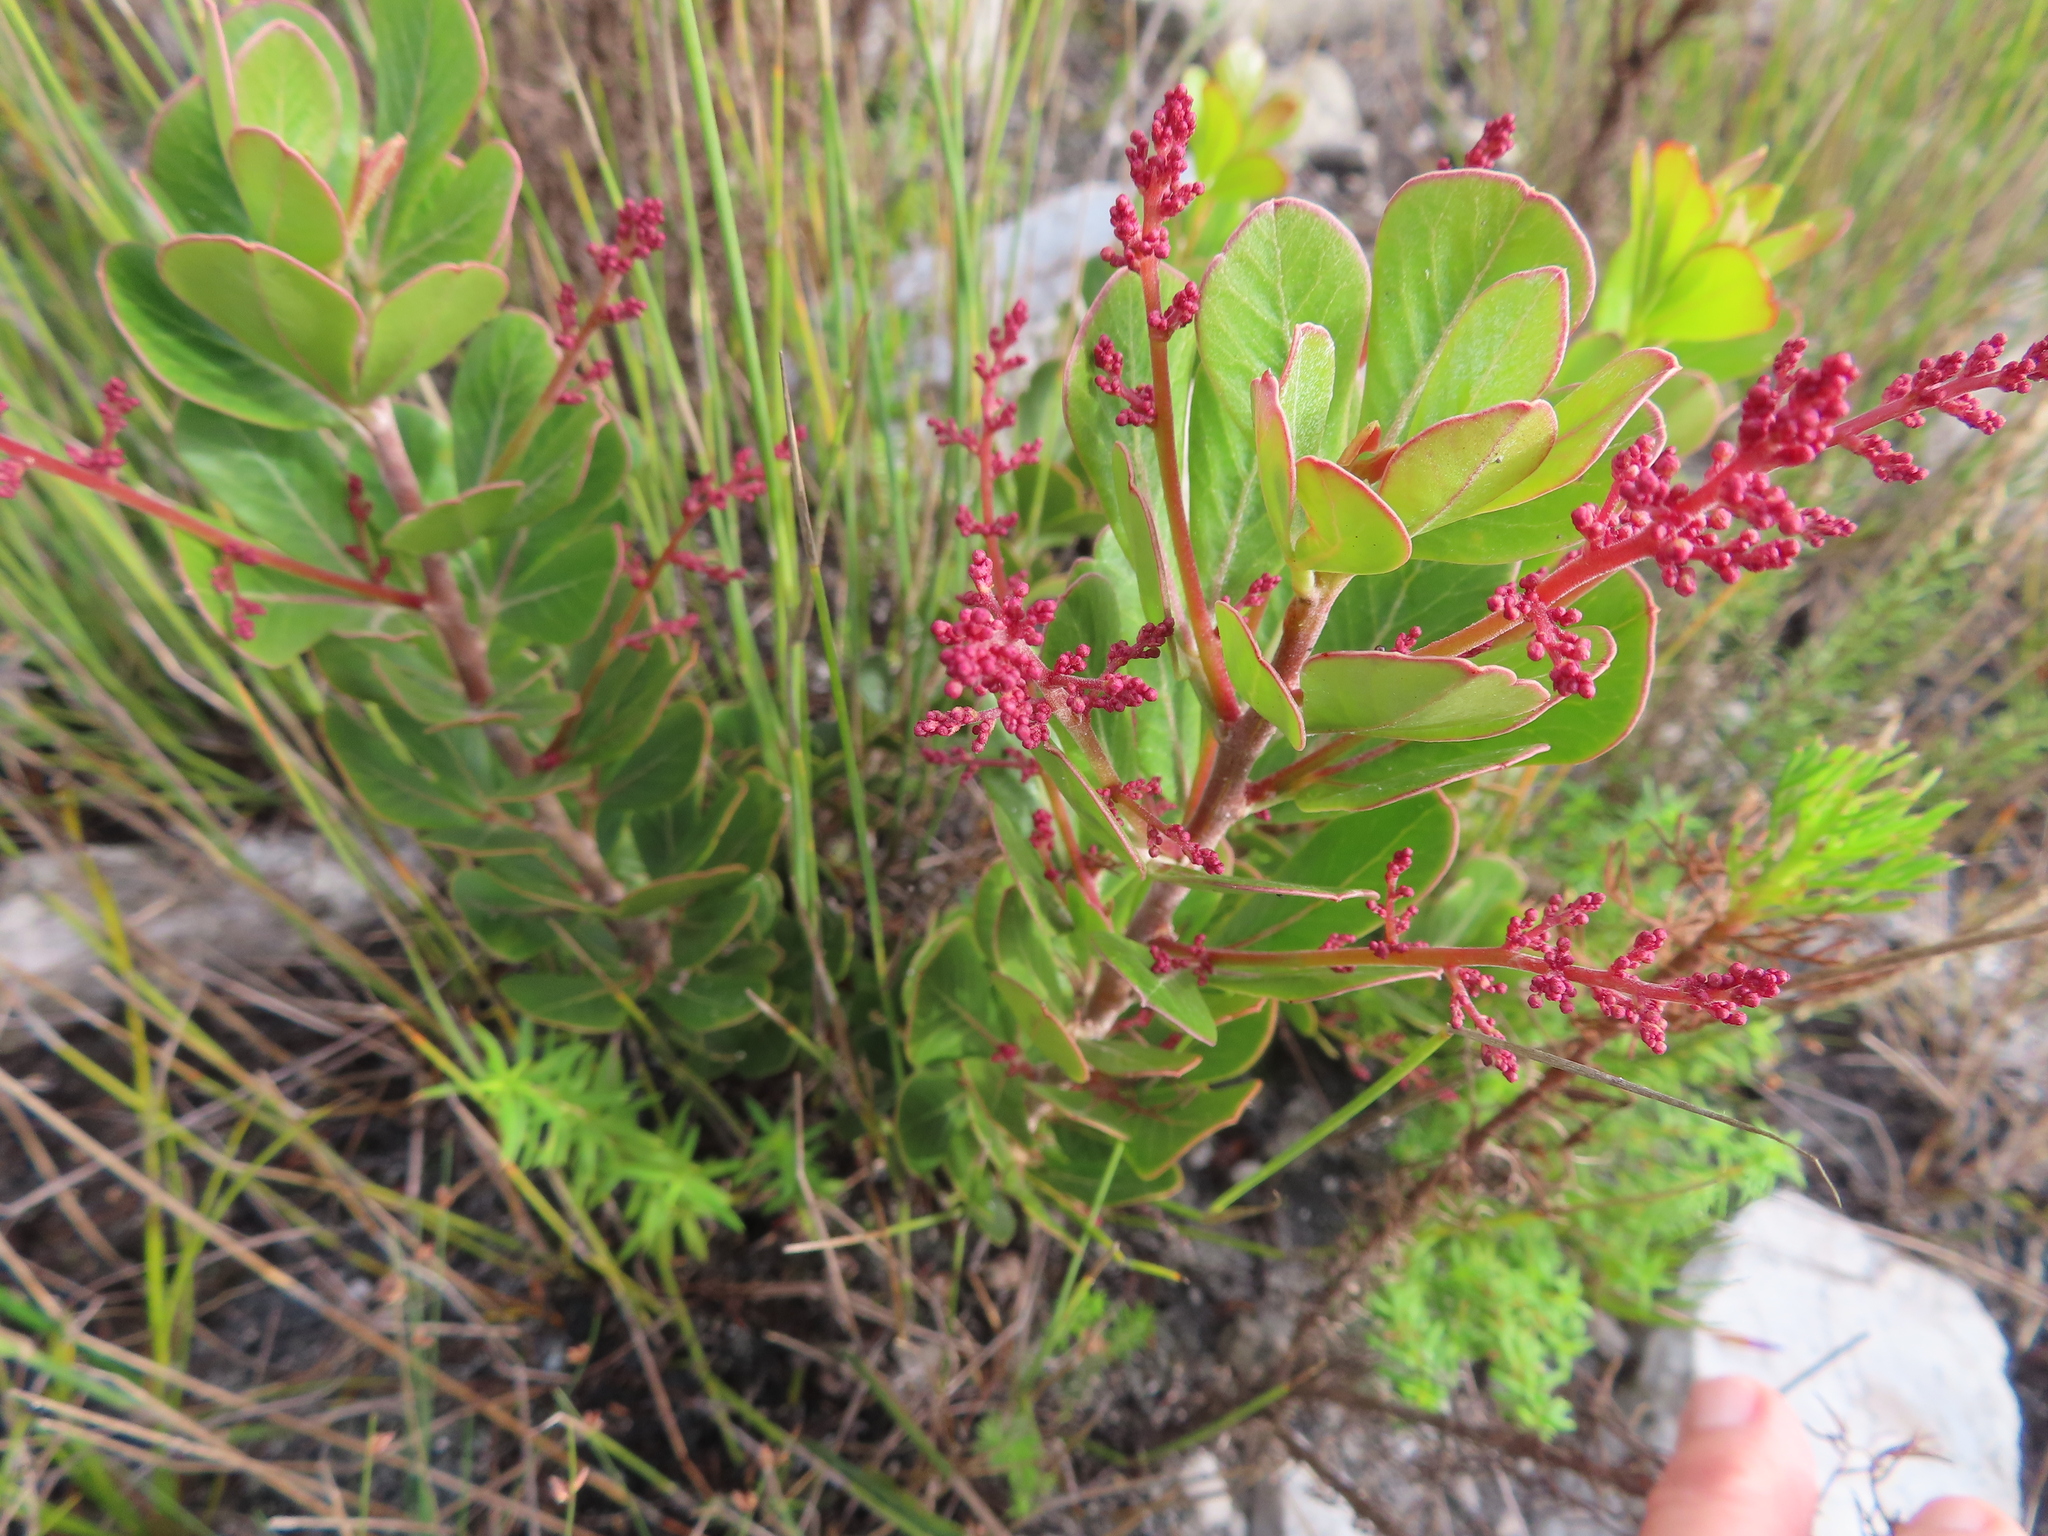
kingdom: Plantae
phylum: Tracheophyta
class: Magnoliopsida
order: Sapindales
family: Anacardiaceae
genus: Searsia
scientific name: Searsia scytophylla
